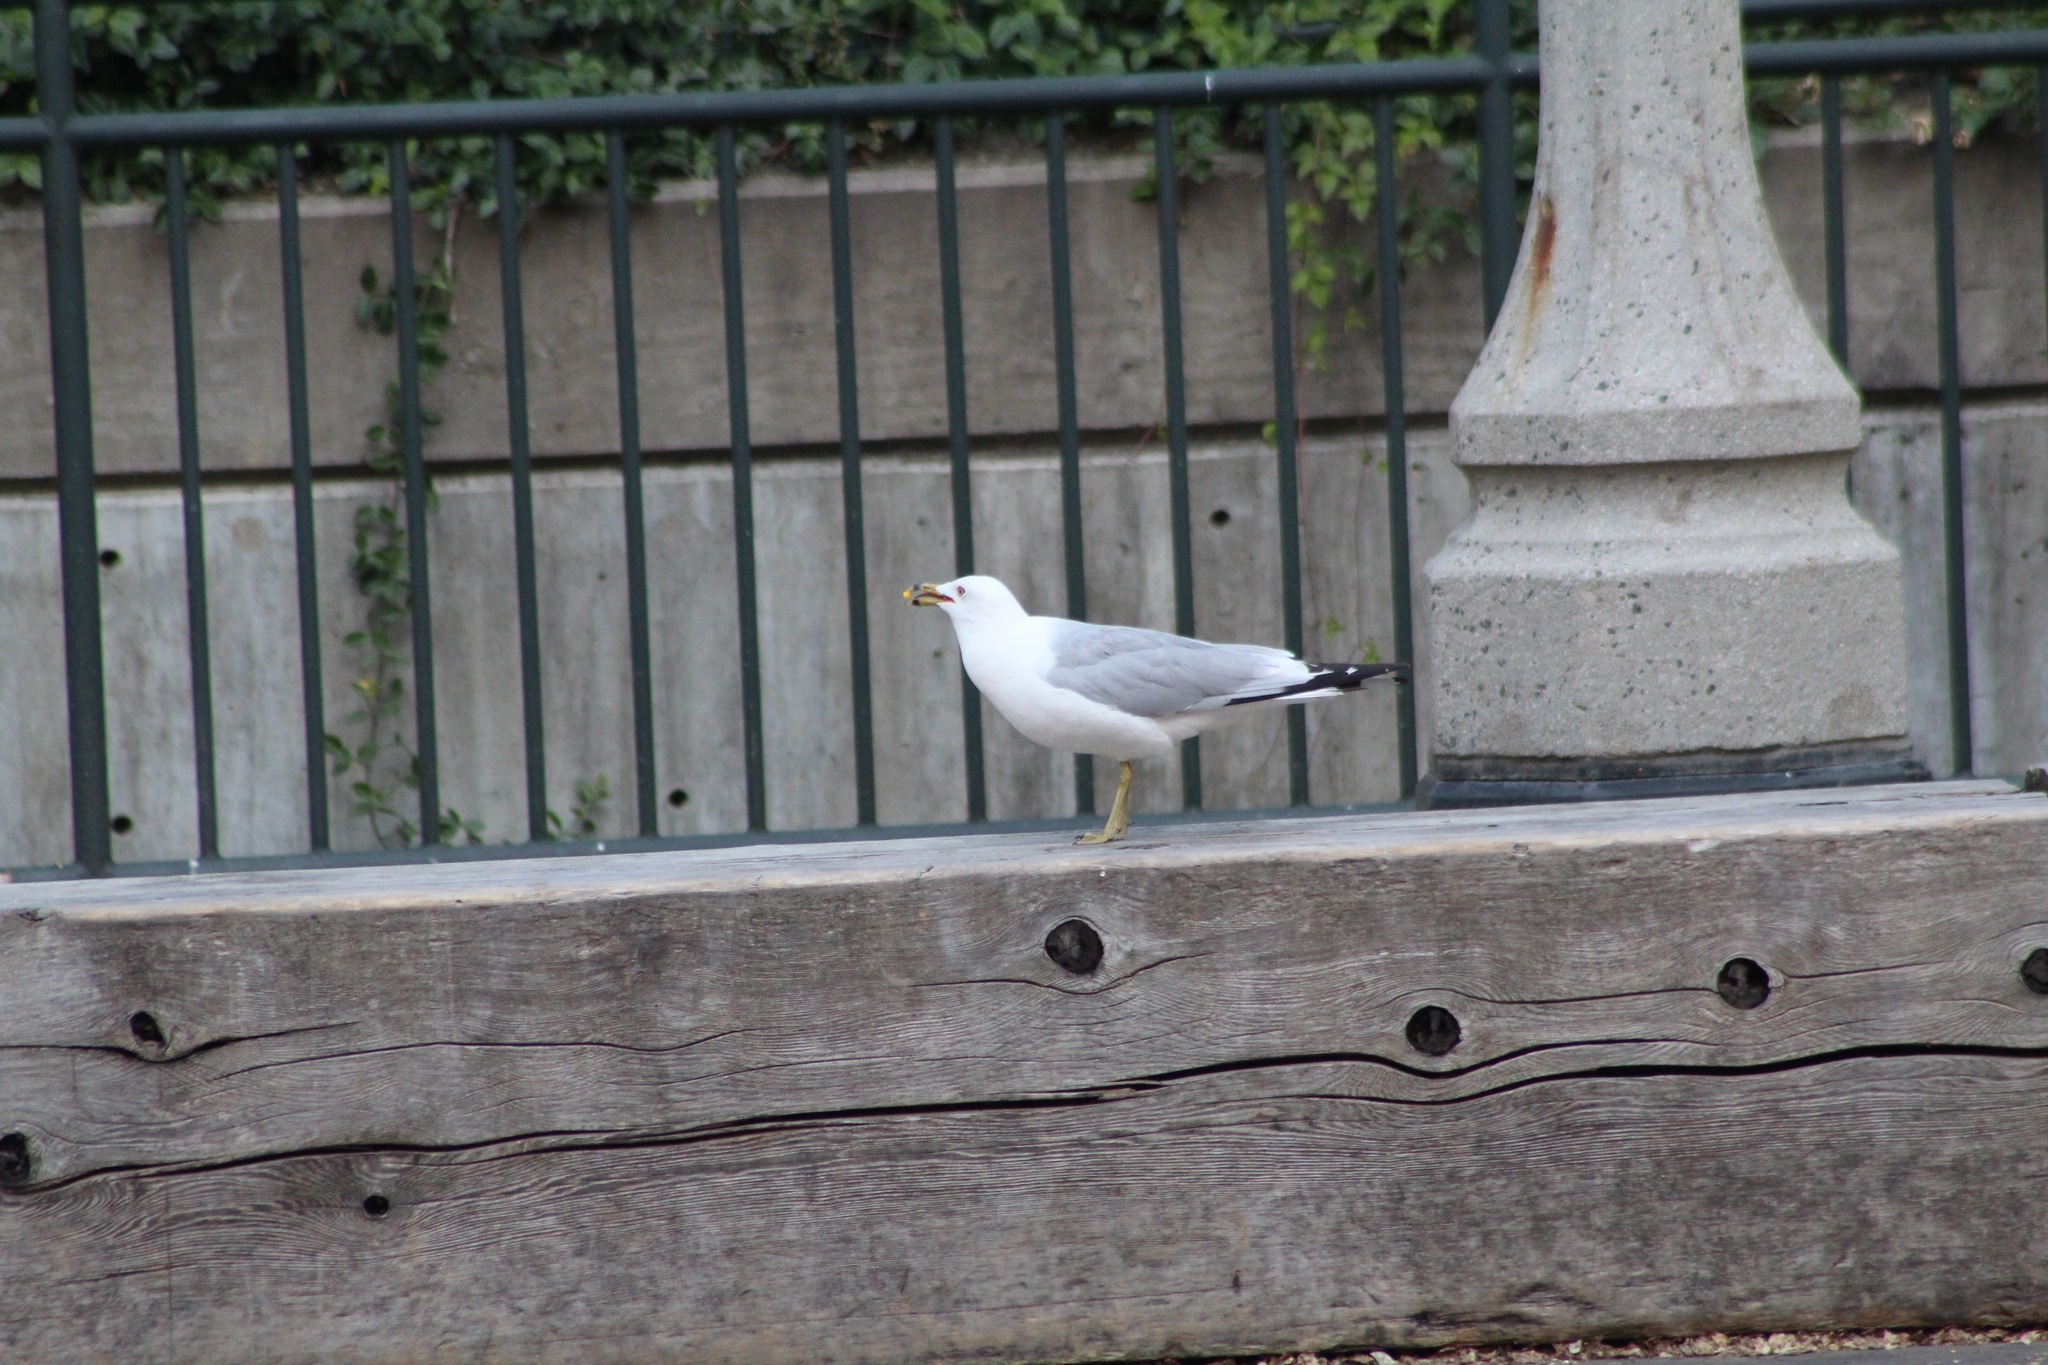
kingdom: Animalia
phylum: Chordata
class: Aves
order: Charadriiformes
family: Laridae
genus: Larus
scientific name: Larus delawarensis
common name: Ring-billed gull
